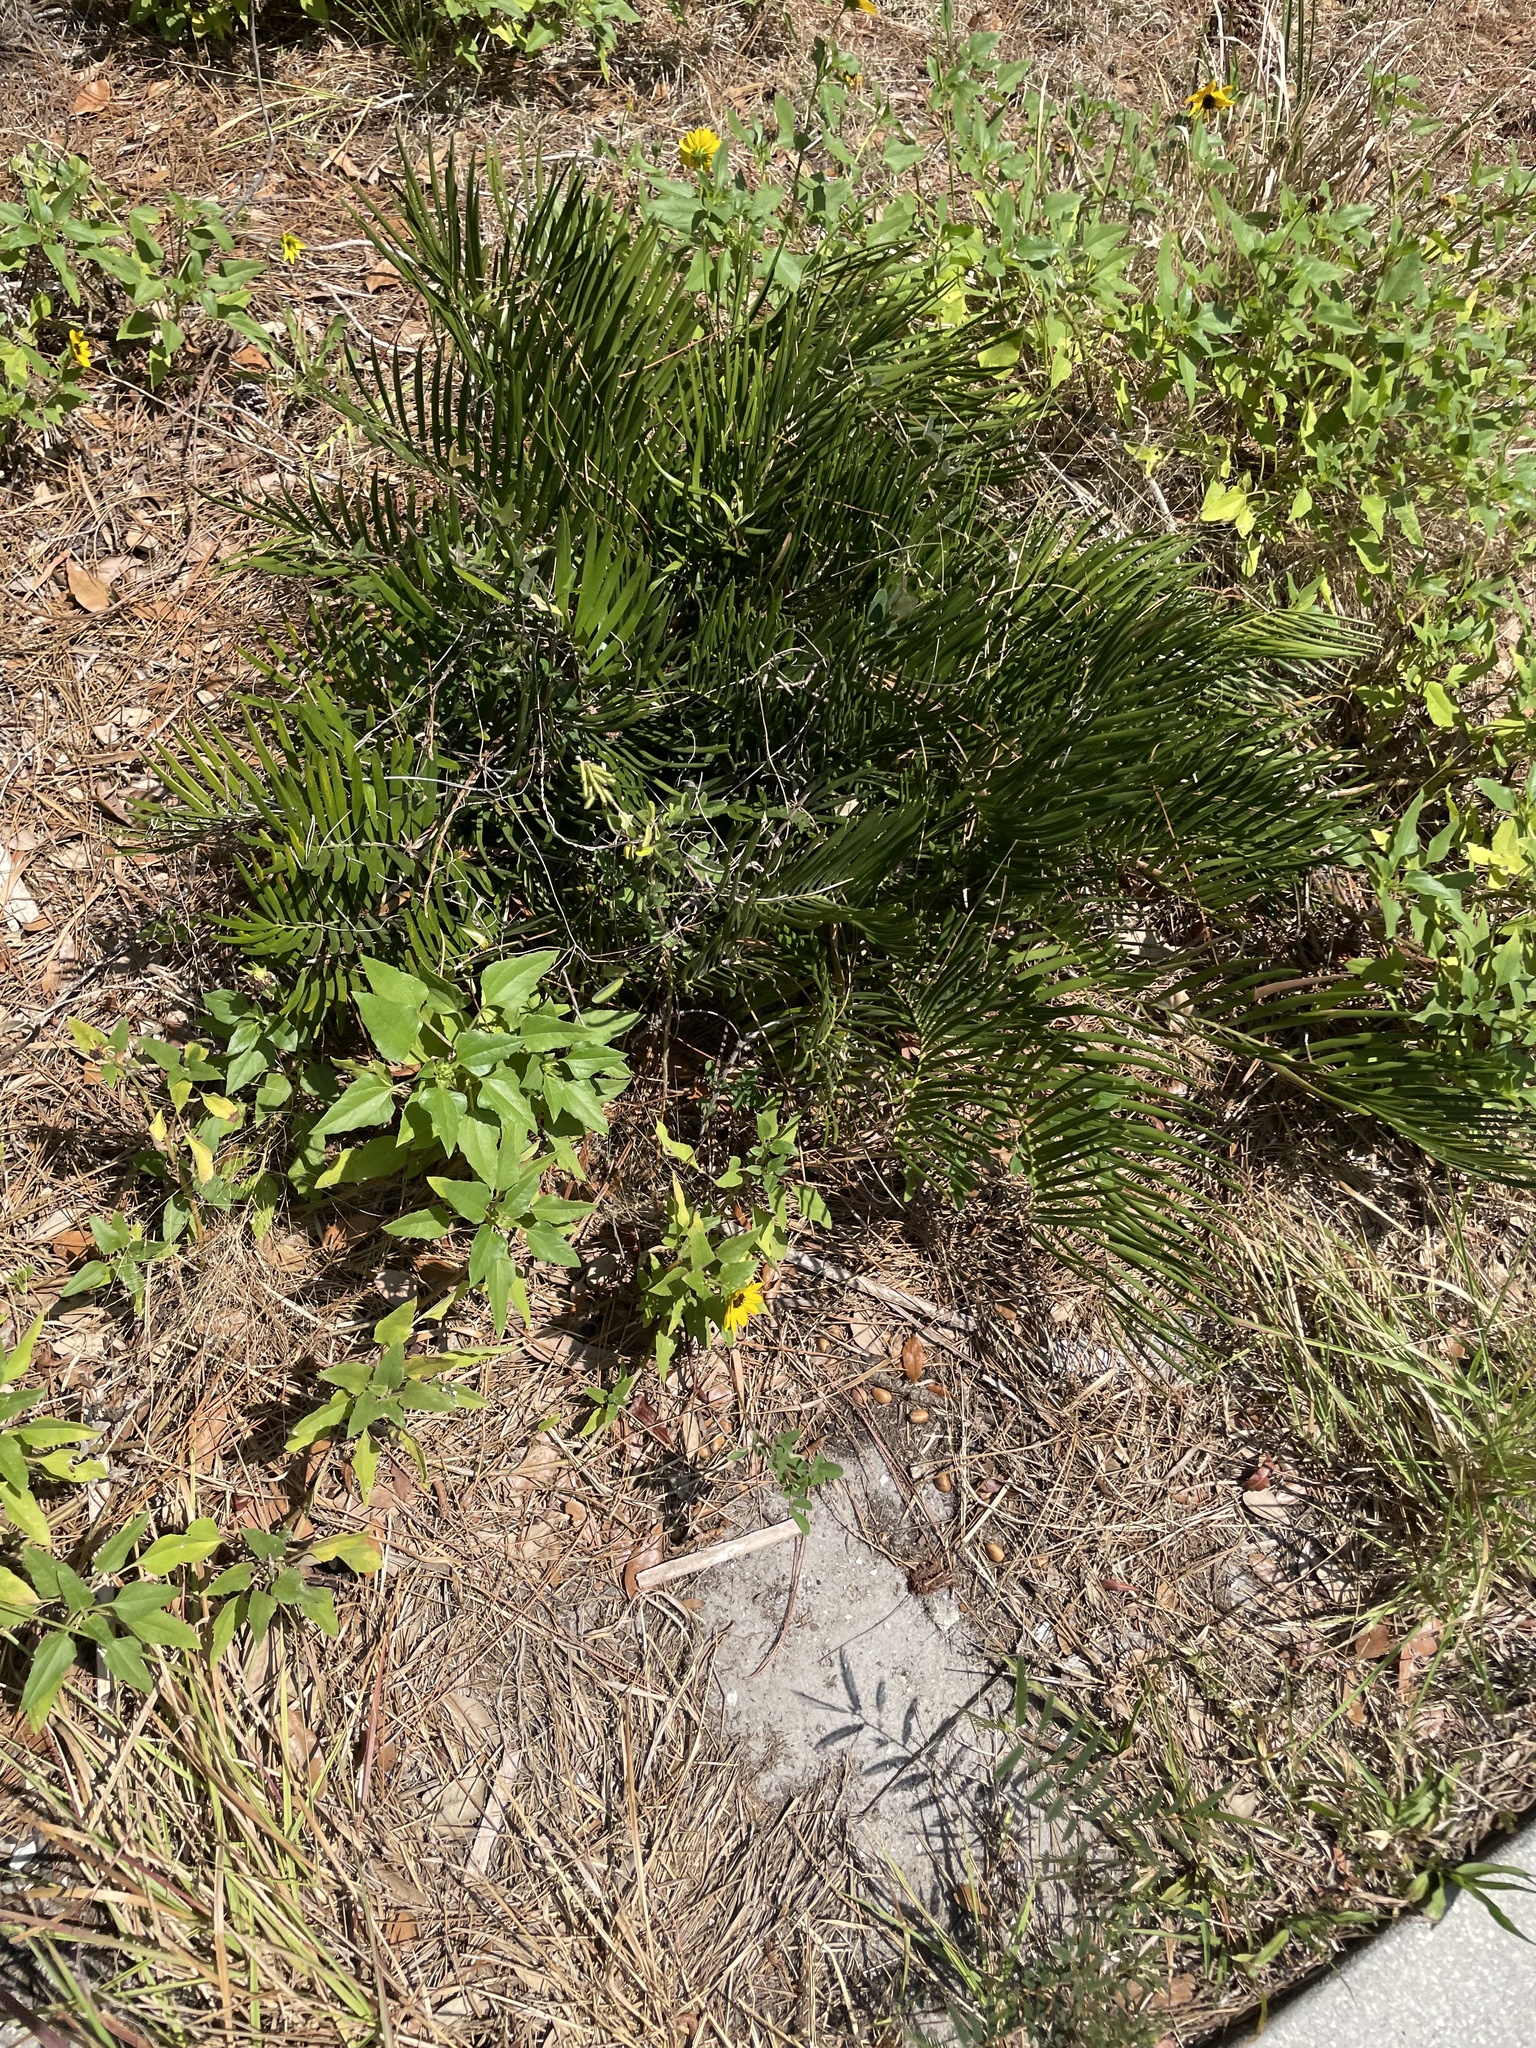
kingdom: Plantae
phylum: Tracheophyta
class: Cycadopsida
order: Cycadales
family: Zamiaceae
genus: Zamia
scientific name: Zamia integrifolia
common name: Florida arrowroot
